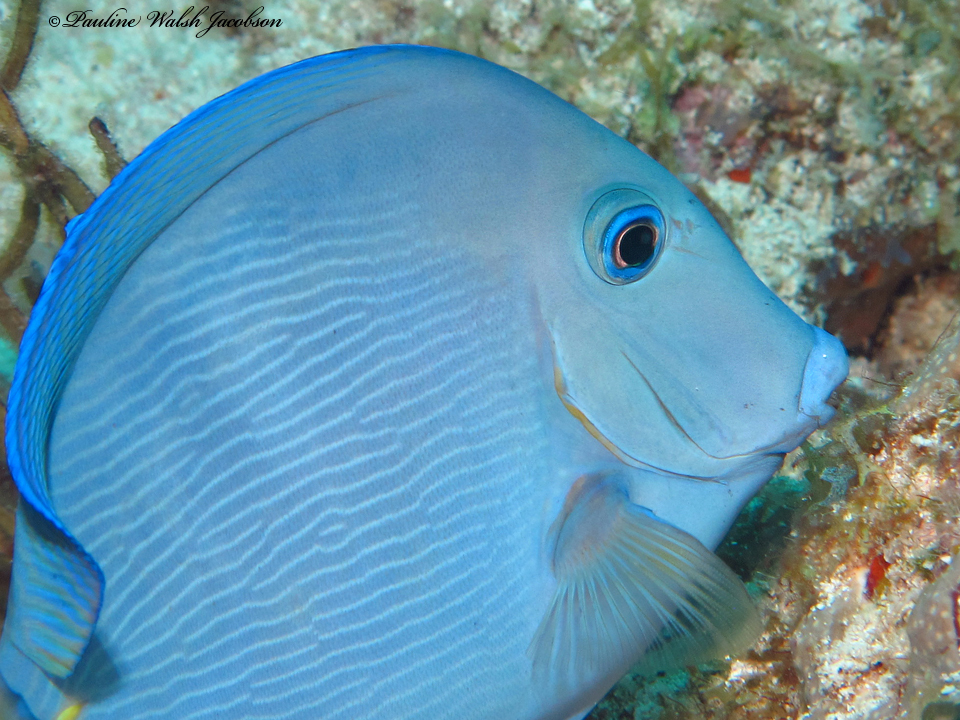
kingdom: Animalia
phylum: Chordata
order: Perciformes
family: Acanthuridae
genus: Acanthurus
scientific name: Acanthurus coeruleus
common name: Blue tang
